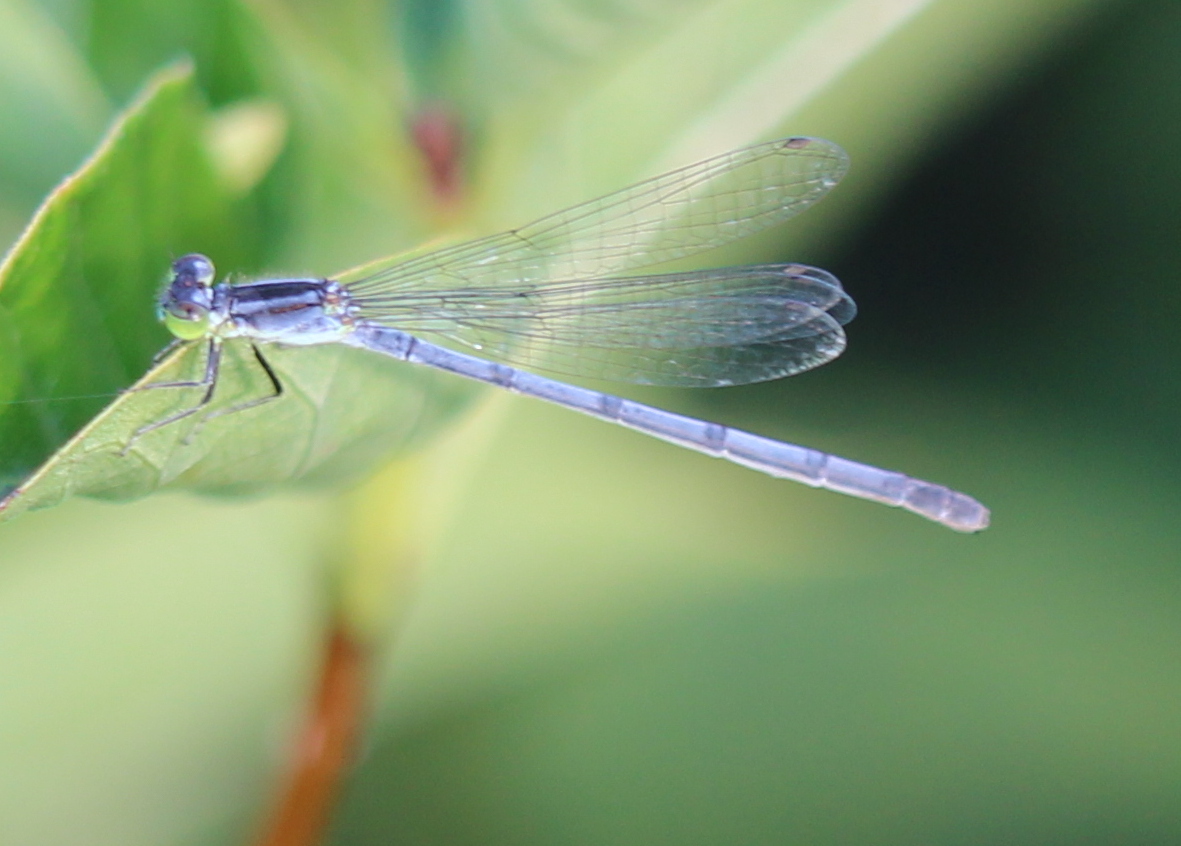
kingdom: Animalia
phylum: Arthropoda
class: Insecta
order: Odonata
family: Coenagrionidae
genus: Ischnura
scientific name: Ischnura verticalis
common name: Eastern forktail
